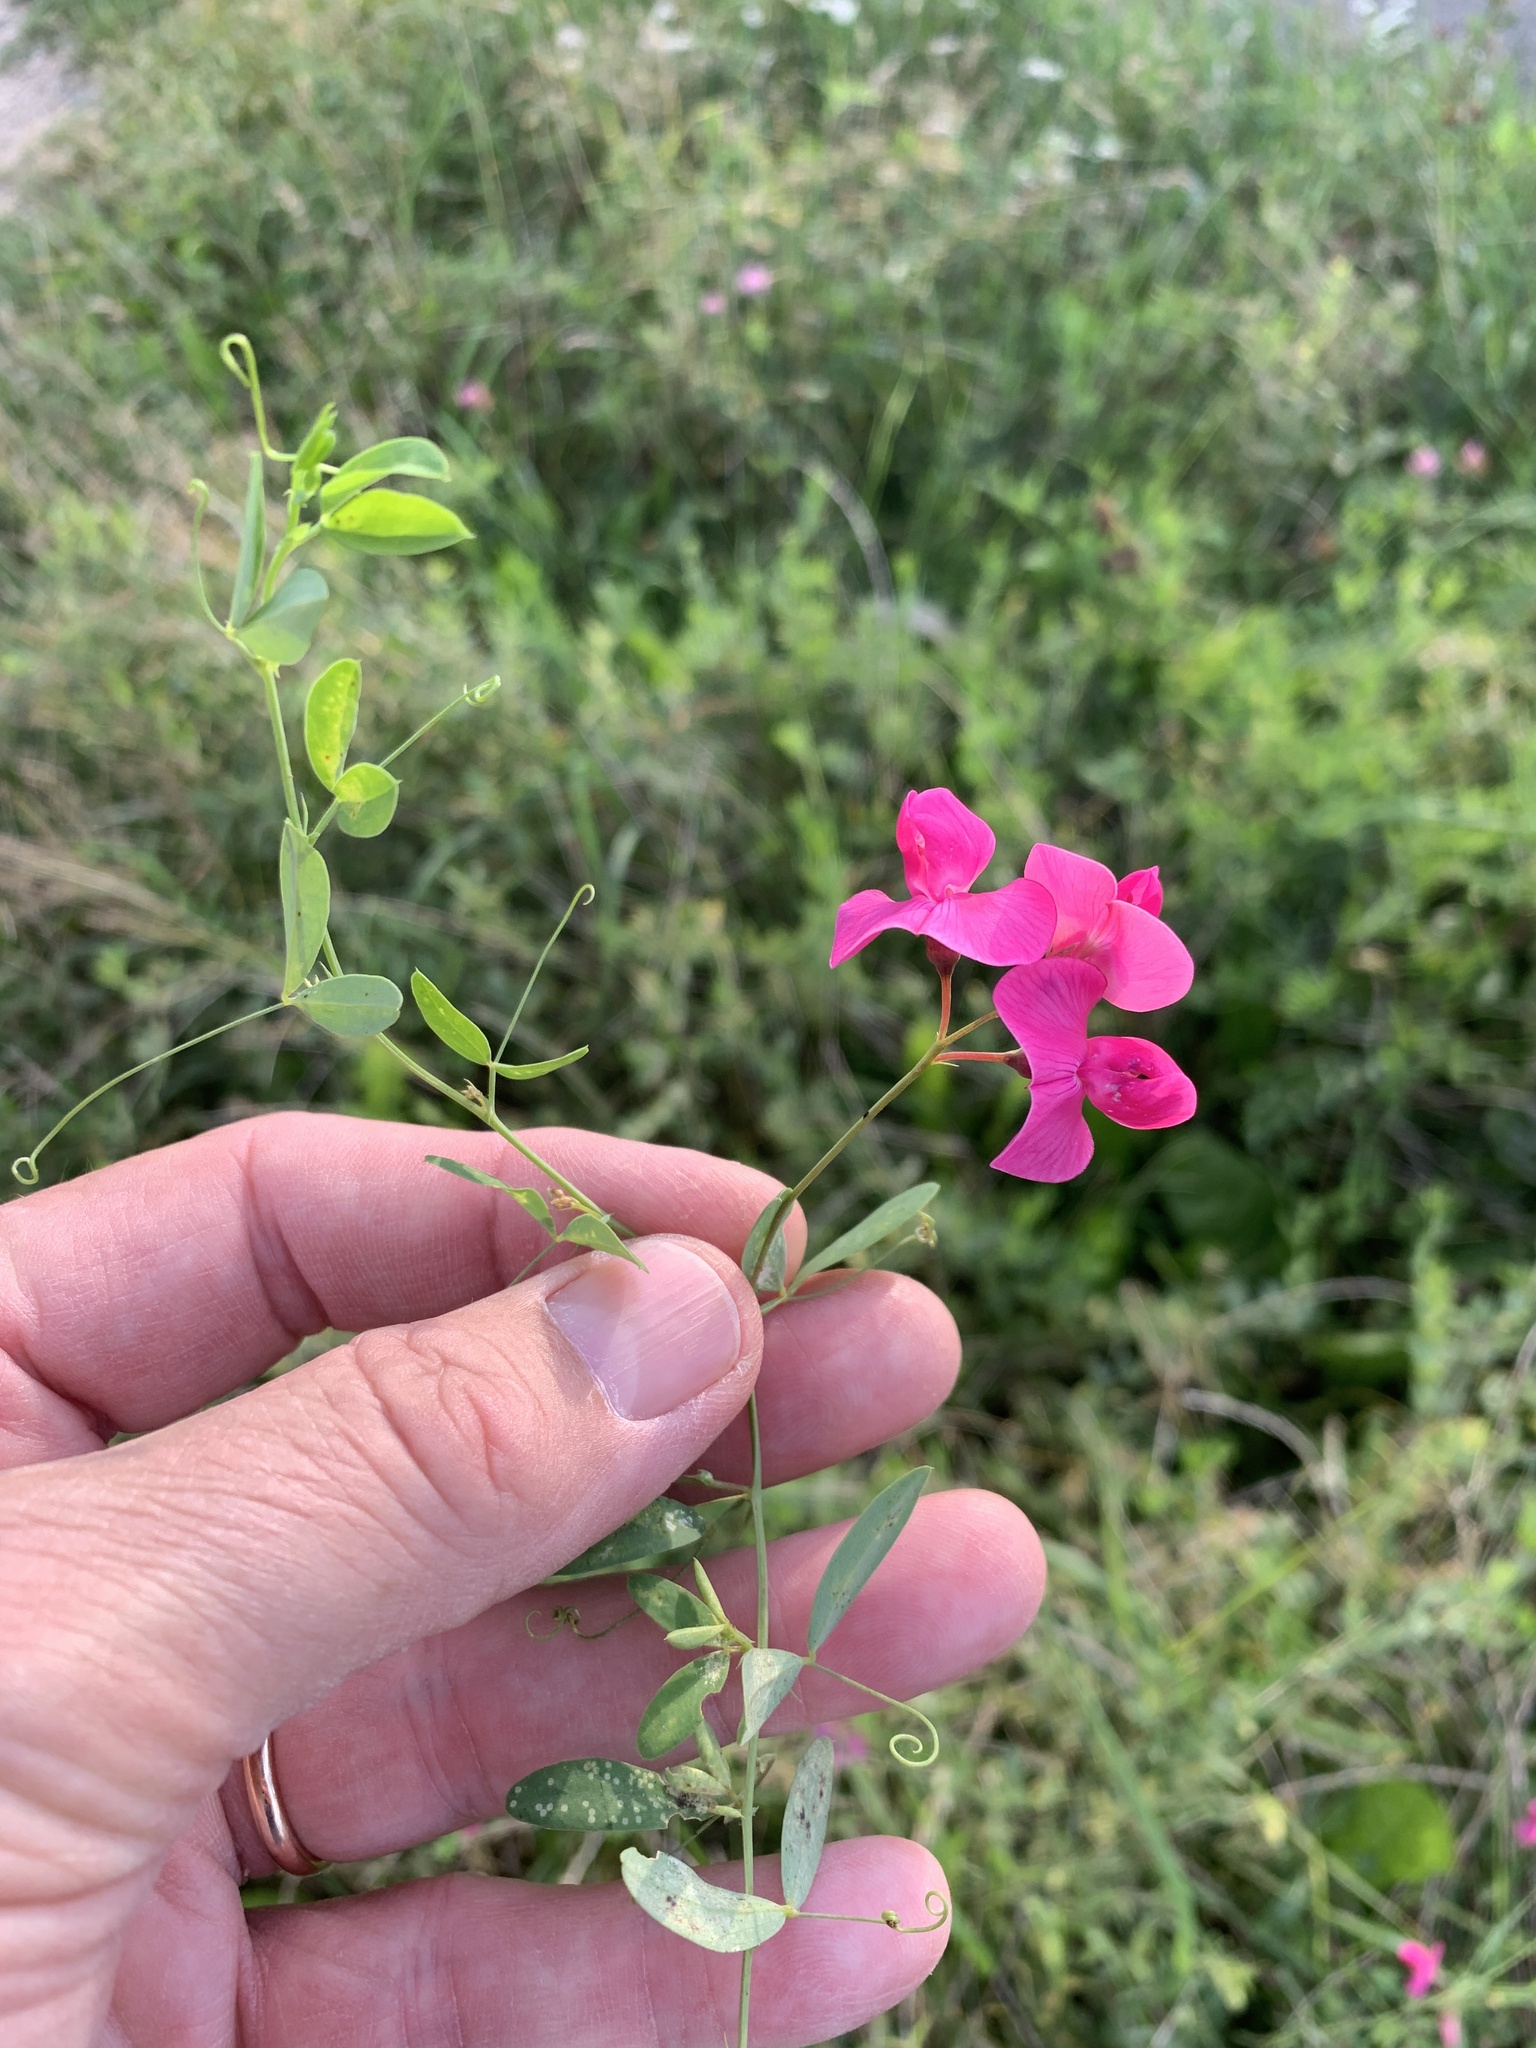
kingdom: Plantae
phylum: Tracheophyta
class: Magnoliopsida
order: Fabales
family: Fabaceae
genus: Lathyrus
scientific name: Lathyrus tuberosus
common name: Tuberous pea
